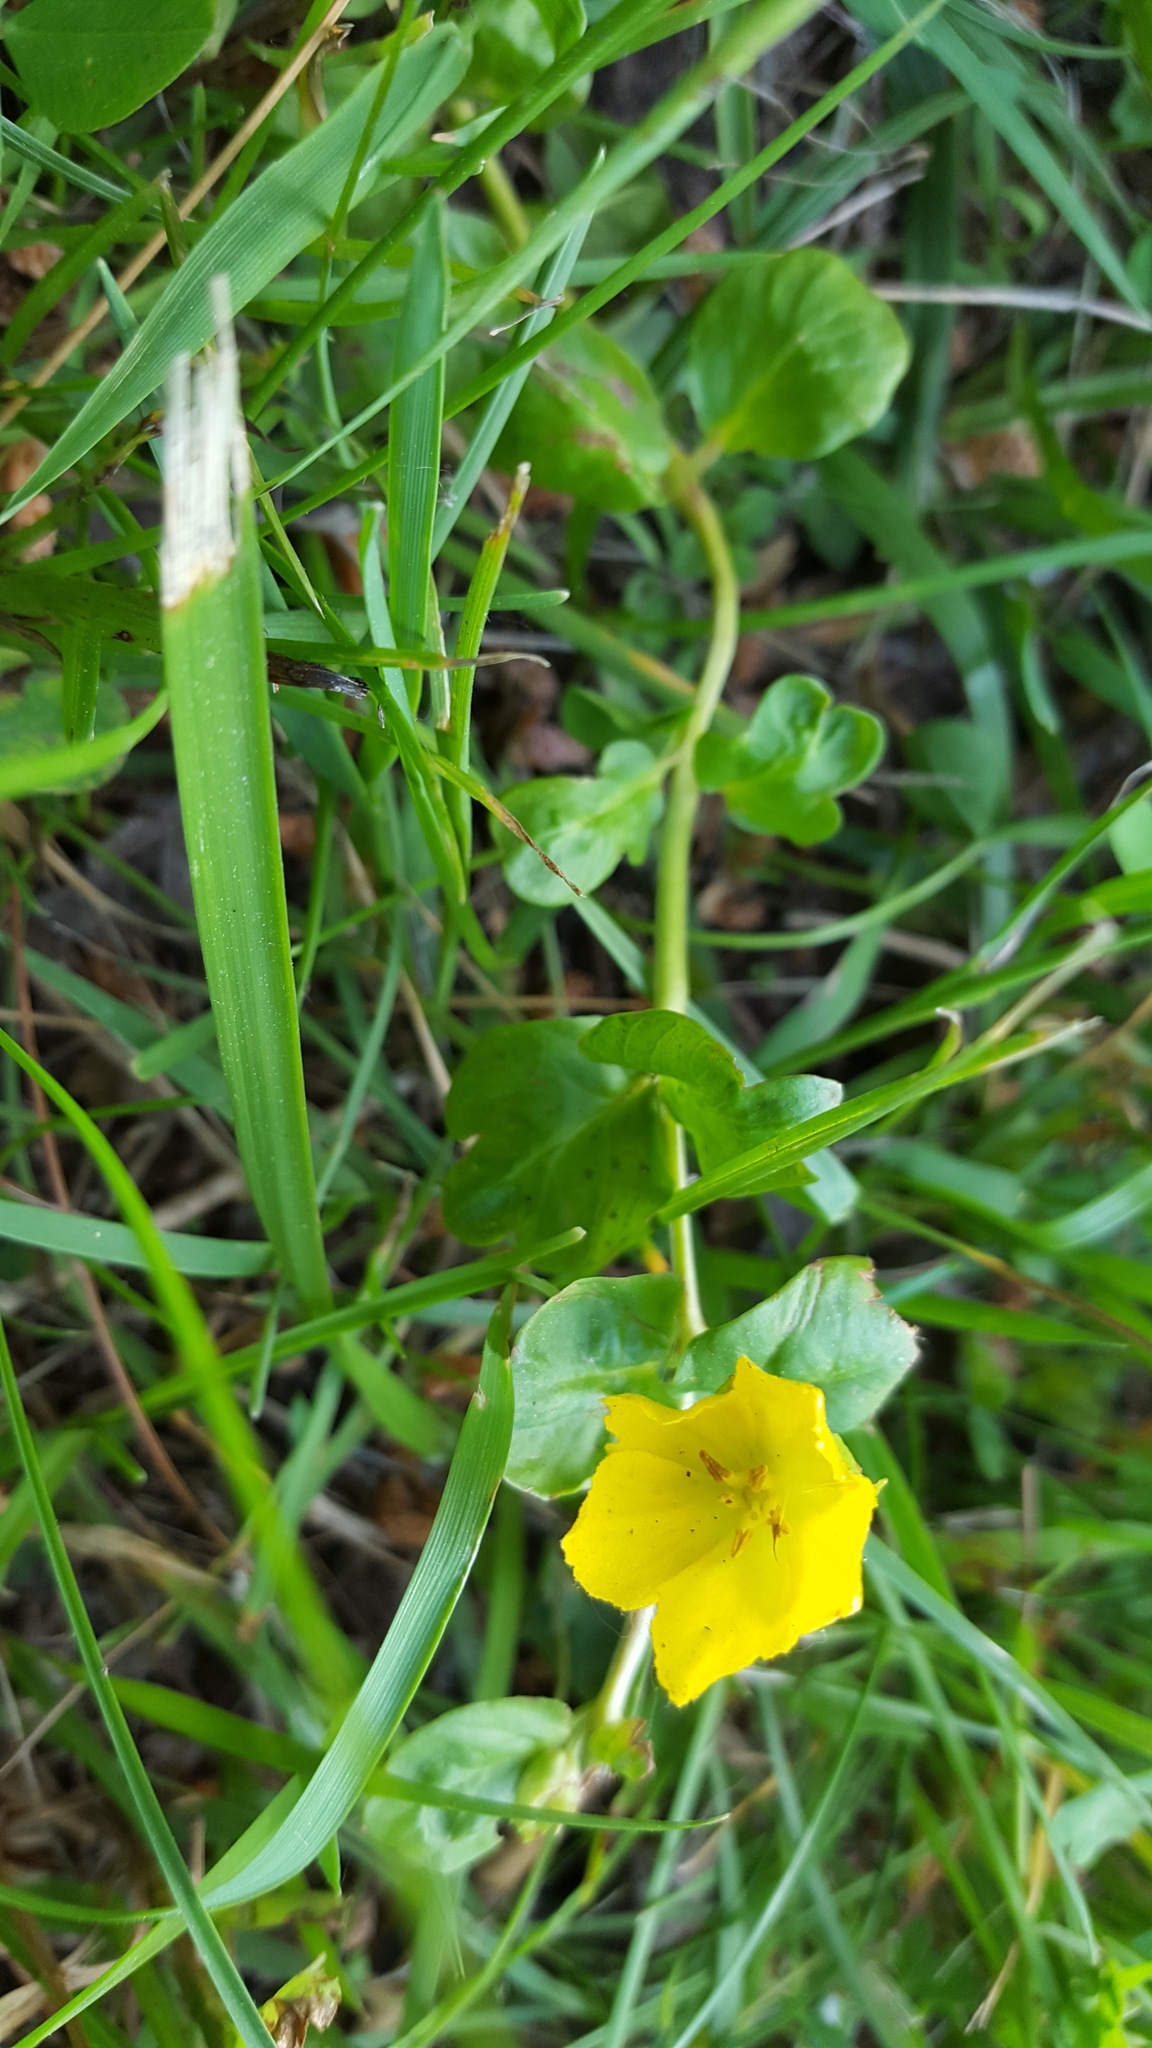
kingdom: Plantae
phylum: Tracheophyta
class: Magnoliopsida
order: Ericales
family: Primulaceae
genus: Lysimachia
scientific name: Lysimachia nummularia
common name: Moneywort
